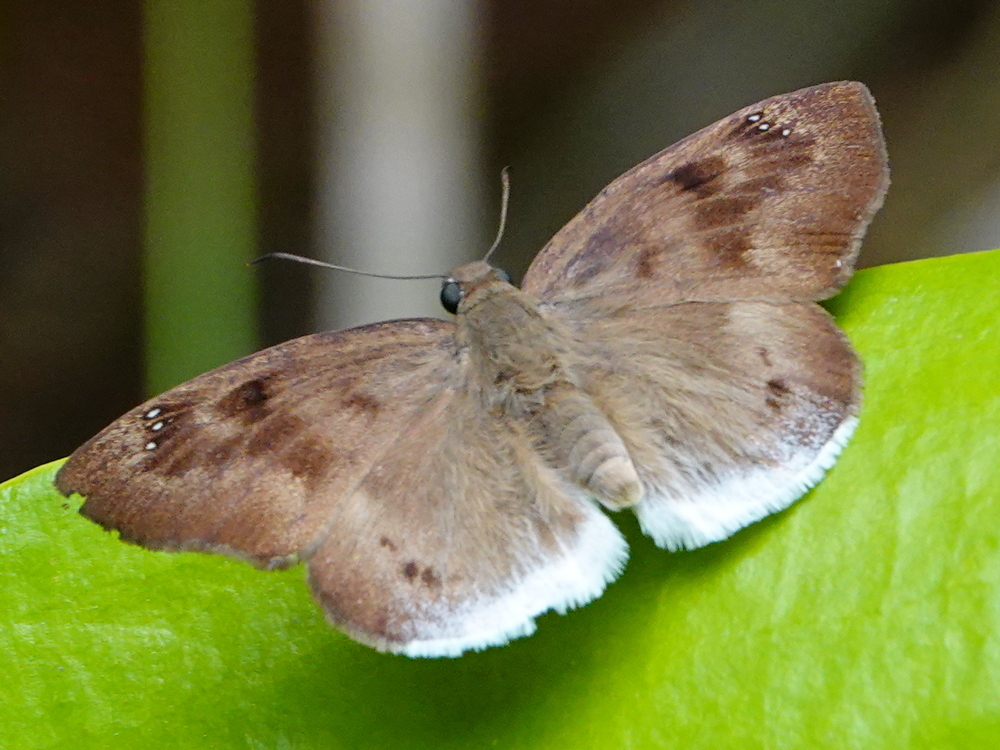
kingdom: Animalia
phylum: Arthropoda
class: Insecta
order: Lepidoptera
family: Hesperiidae
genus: Tagiades
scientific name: Tagiades japetus
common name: Pied flat
